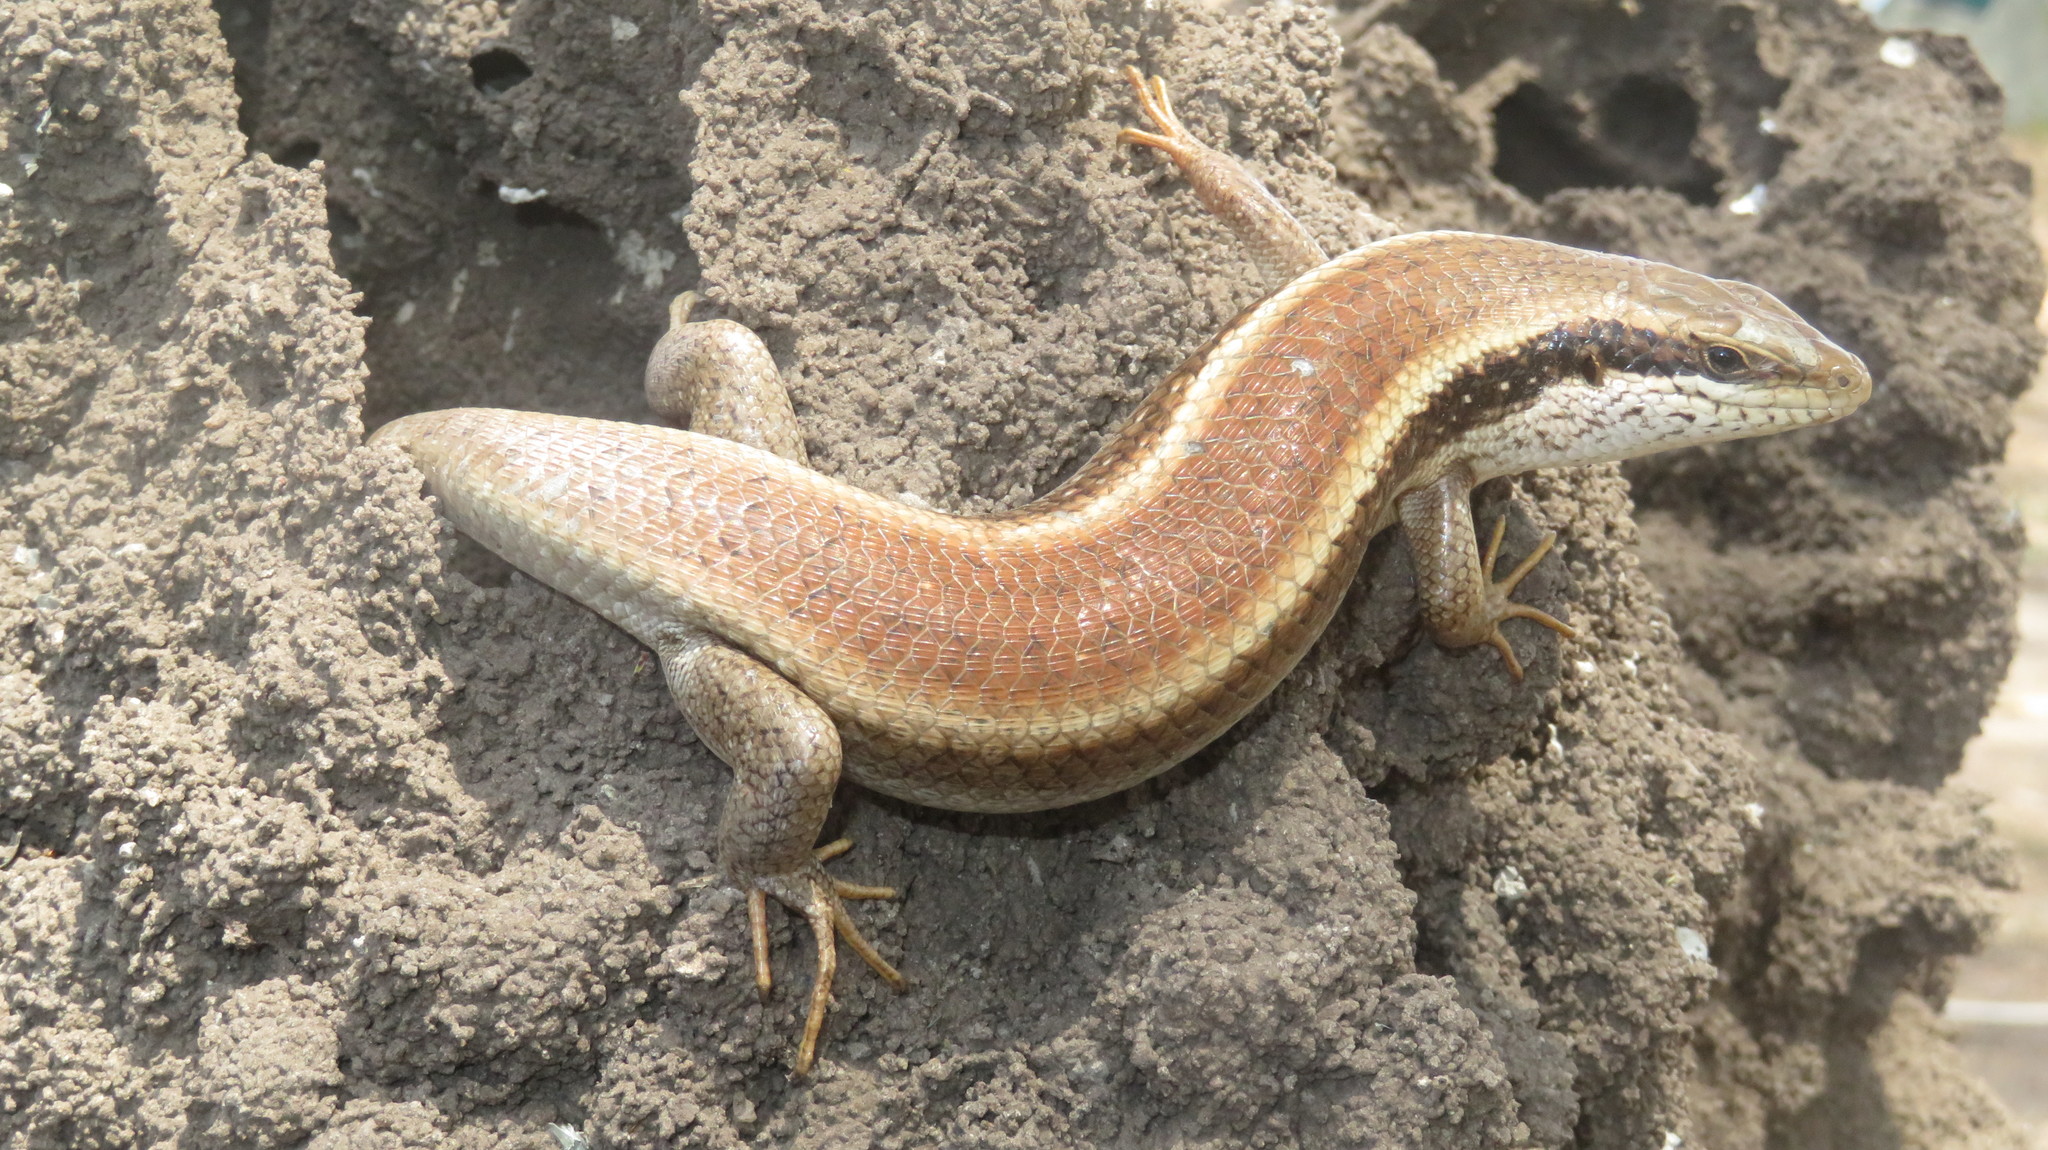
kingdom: Animalia
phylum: Chordata
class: Squamata
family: Scincidae
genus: Trachylepis
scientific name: Trachylepis planifrons
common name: Tree skink
